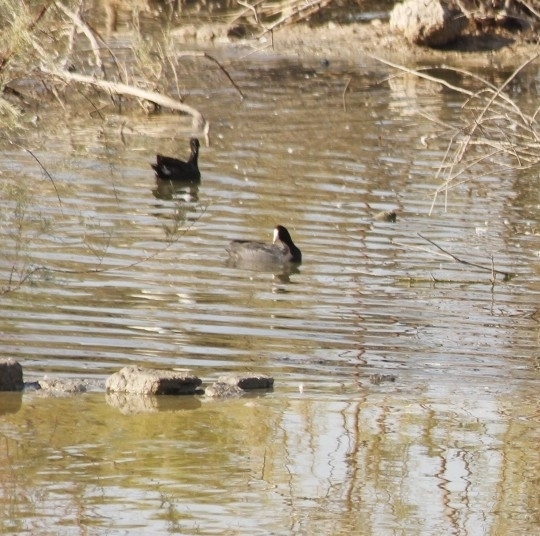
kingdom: Animalia
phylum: Chordata
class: Aves
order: Gruiformes
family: Rallidae
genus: Fulica
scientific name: Fulica americana
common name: American coot
